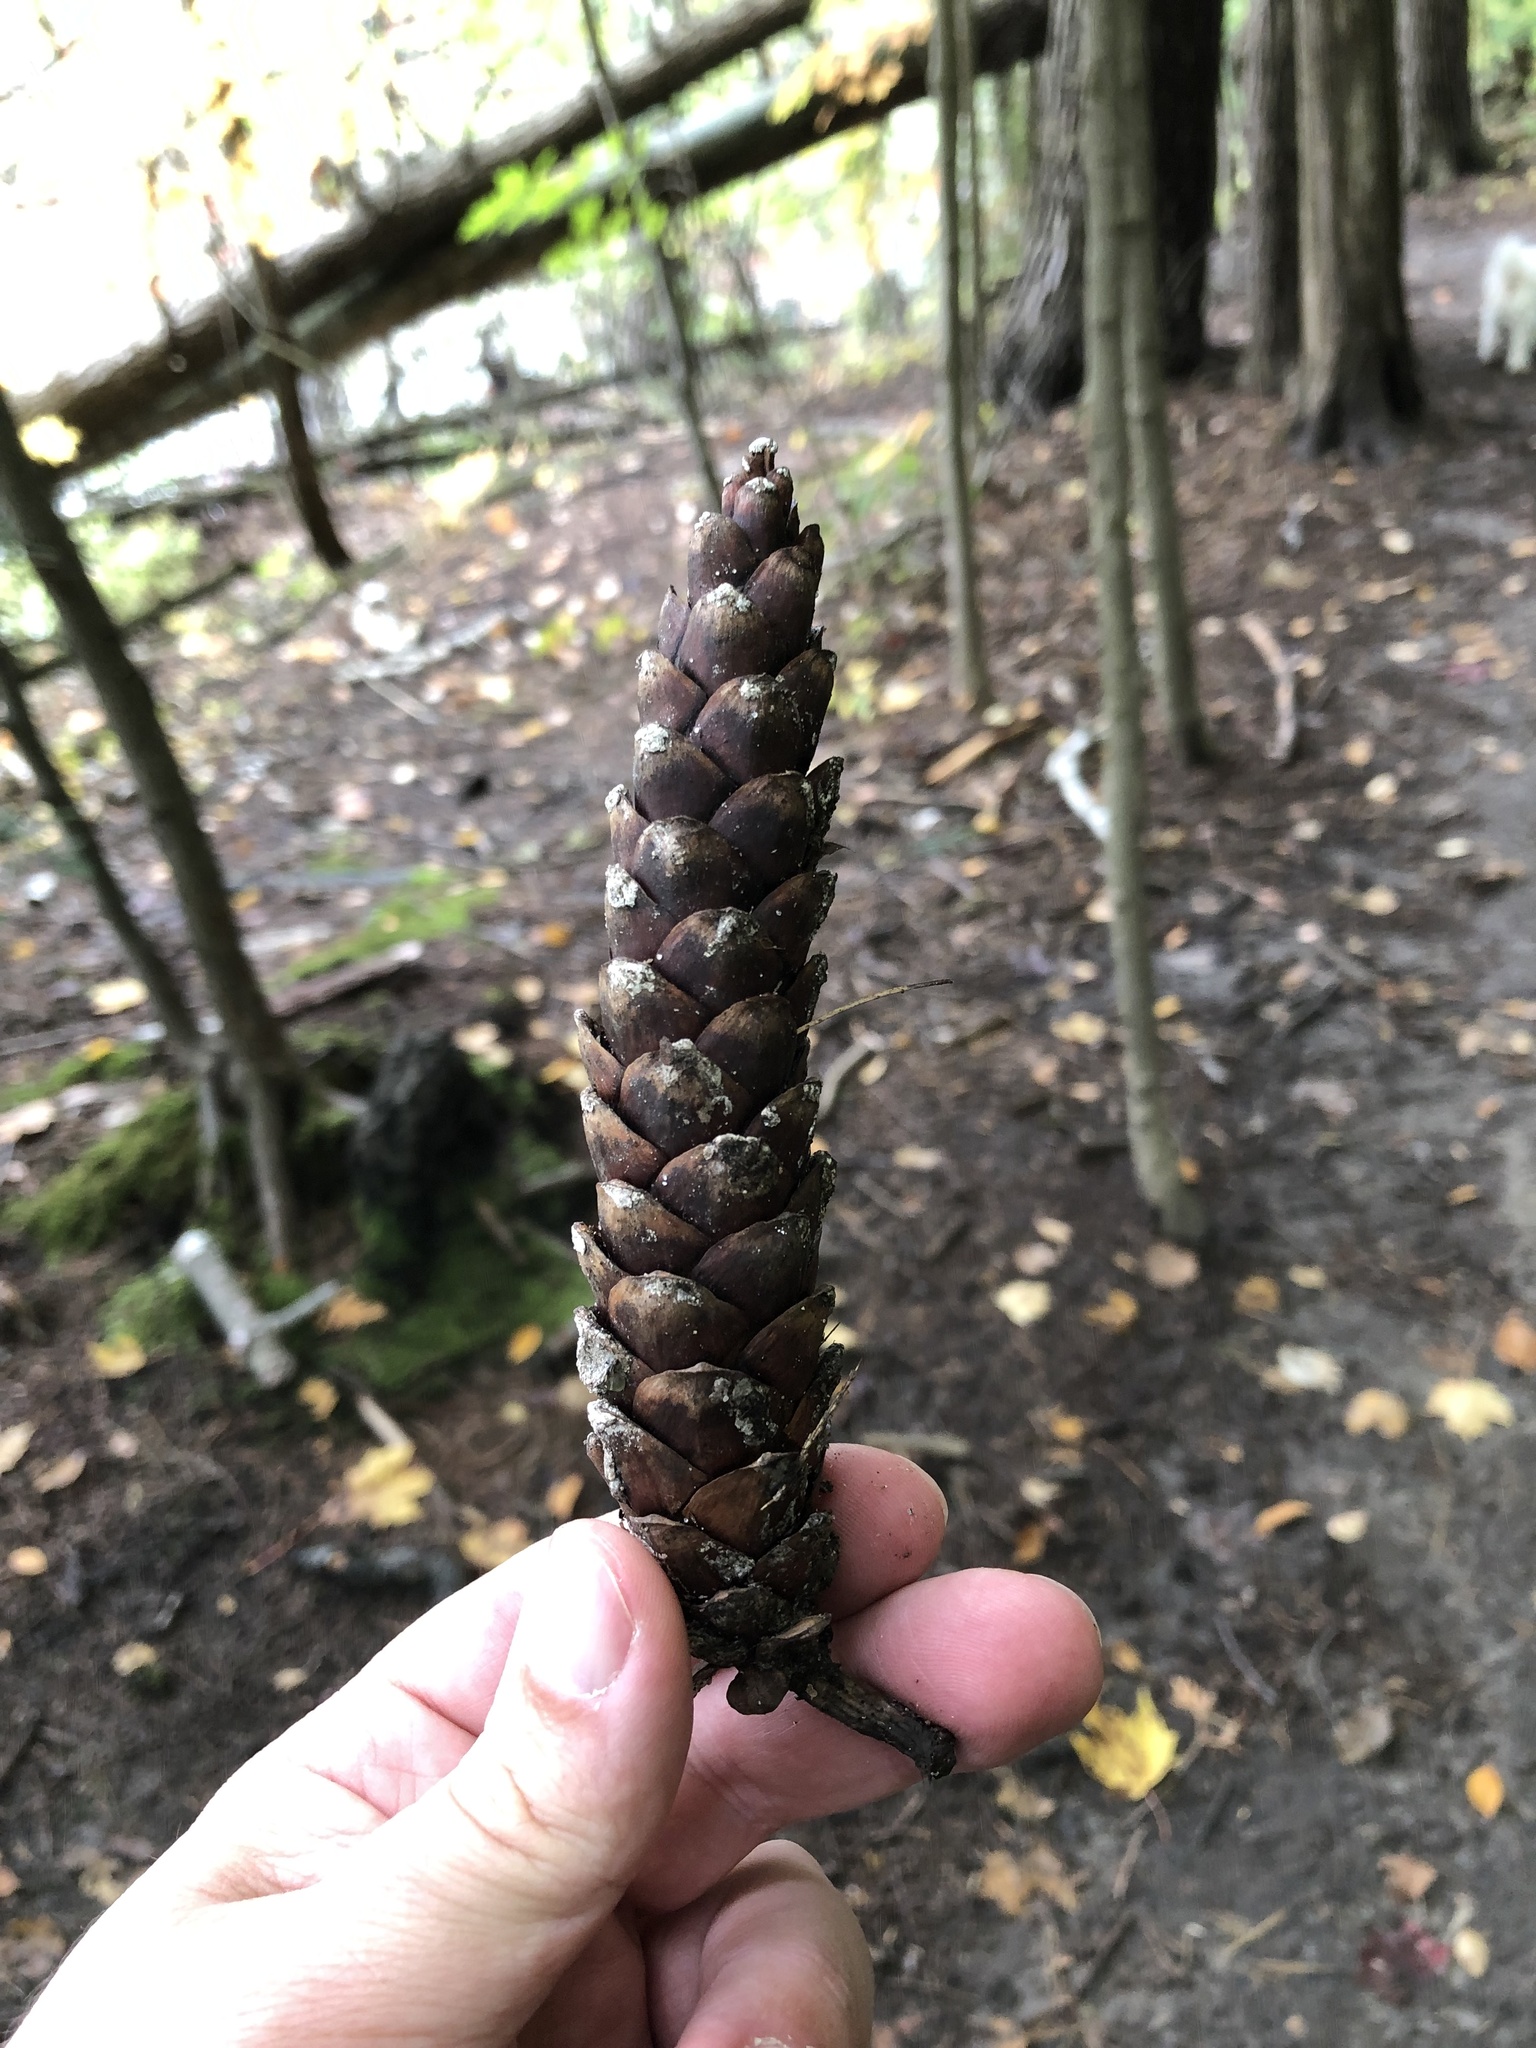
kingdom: Plantae
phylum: Tracheophyta
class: Pinopsida
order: Pinales
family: Pinaceae
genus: Pinus
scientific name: Pinus strobus
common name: Weymouth pine
